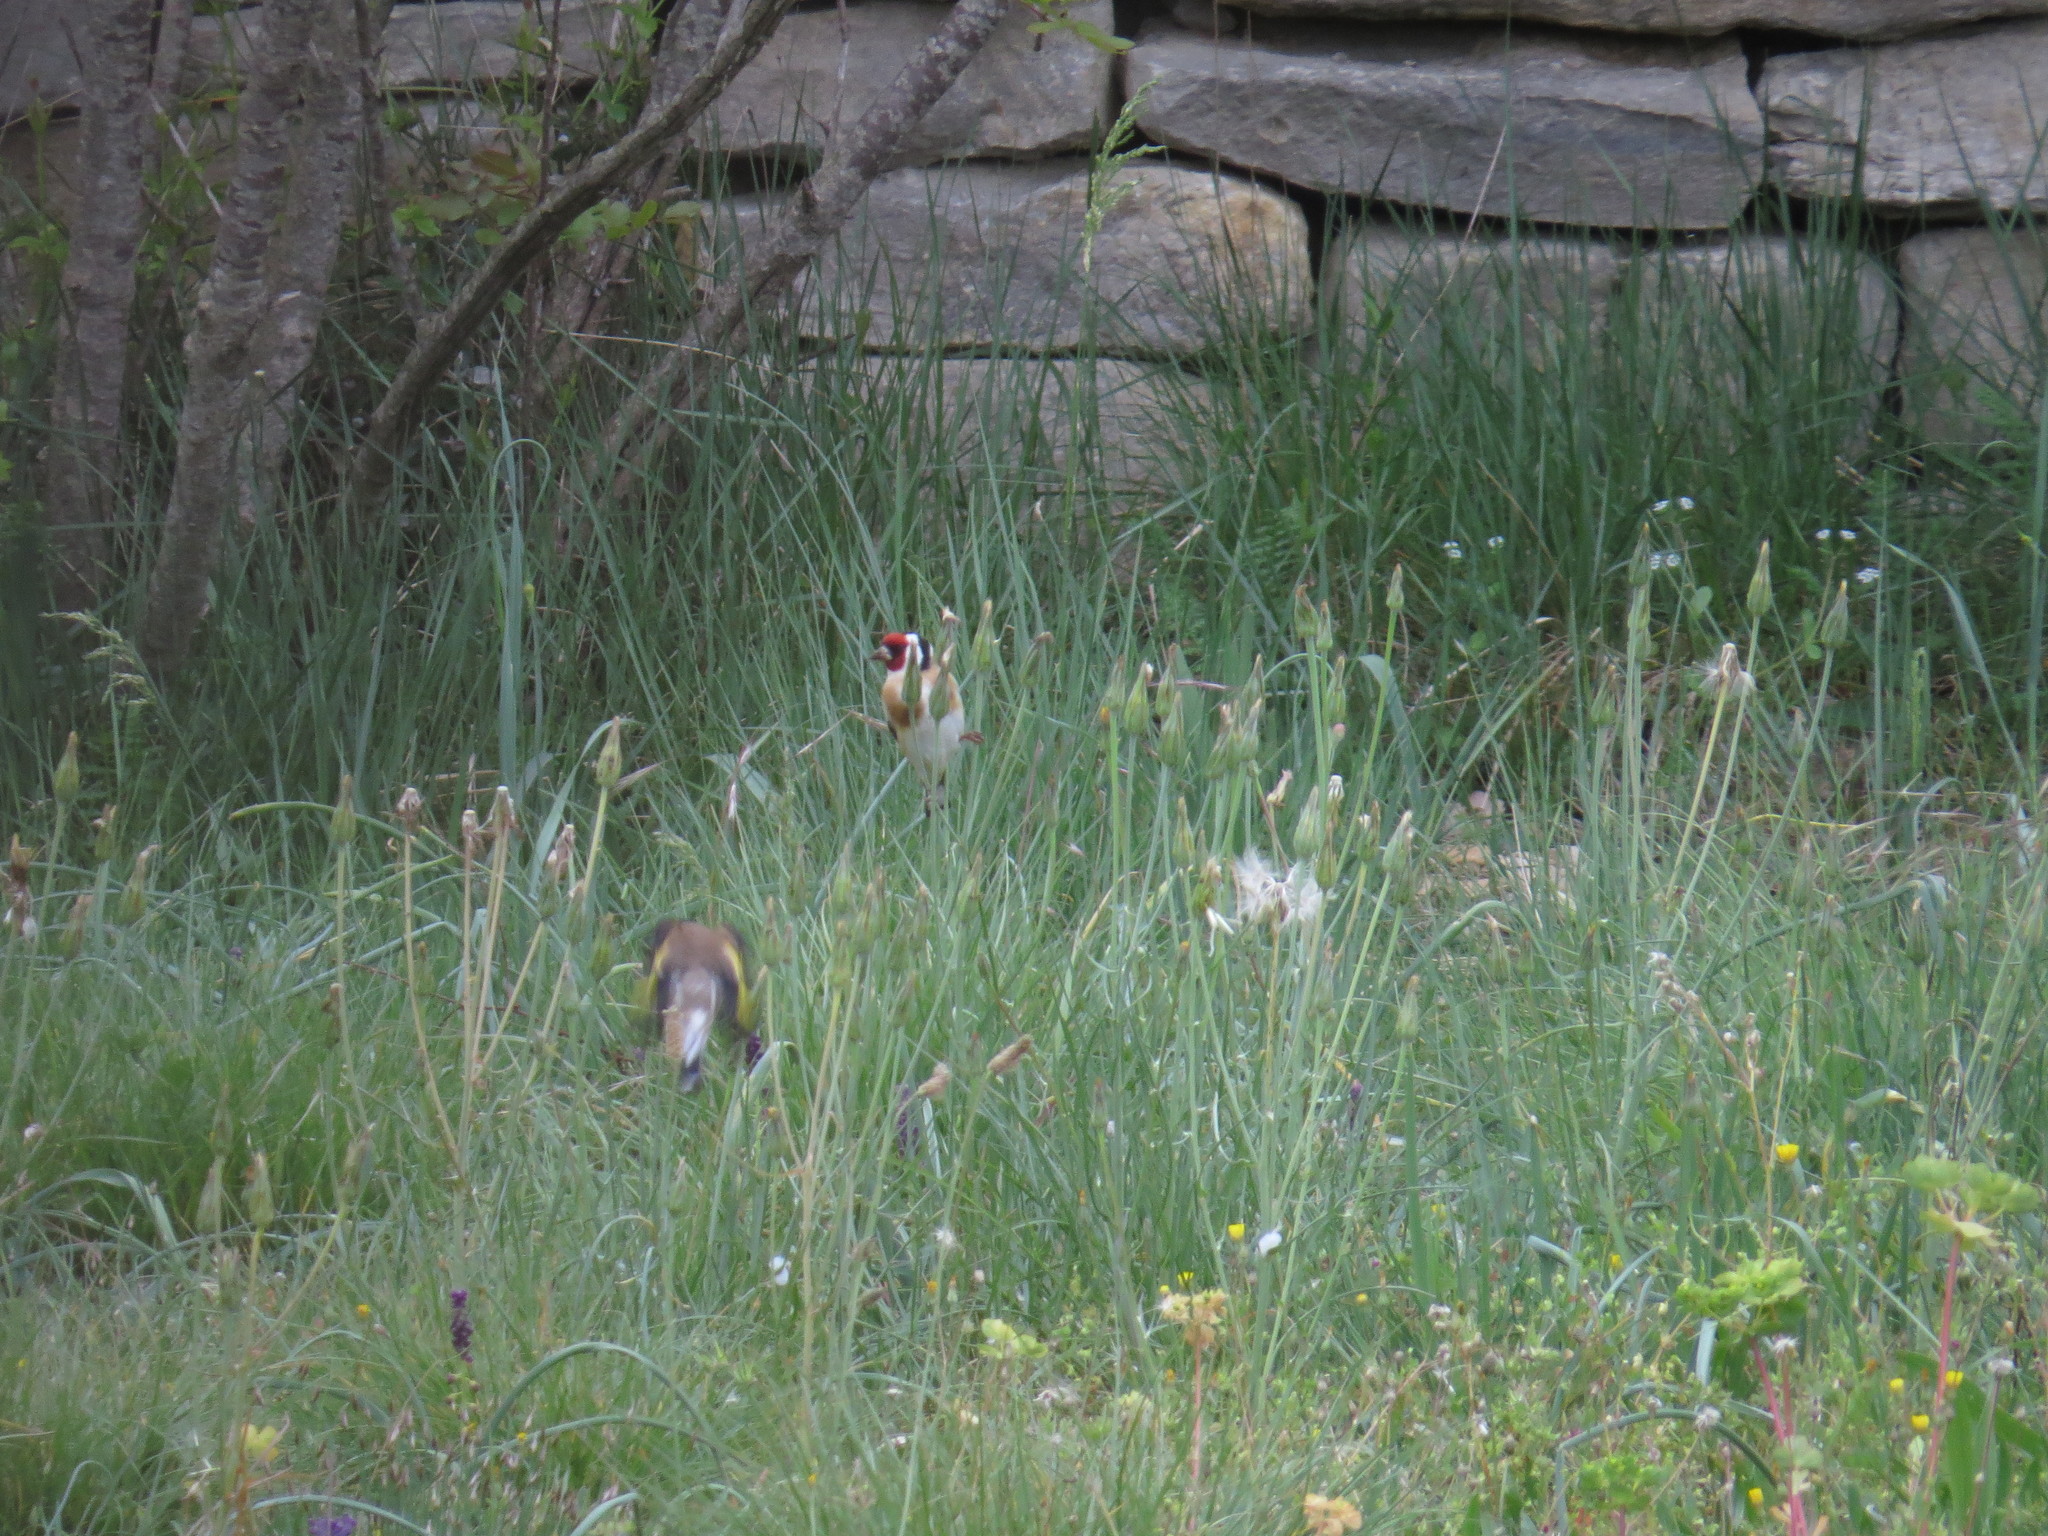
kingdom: Animalia
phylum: Chordata
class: Aves
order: Passeriformes
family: Fringillidae
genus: Carduelis
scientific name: Carduelis carduelis
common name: European goldfinch
